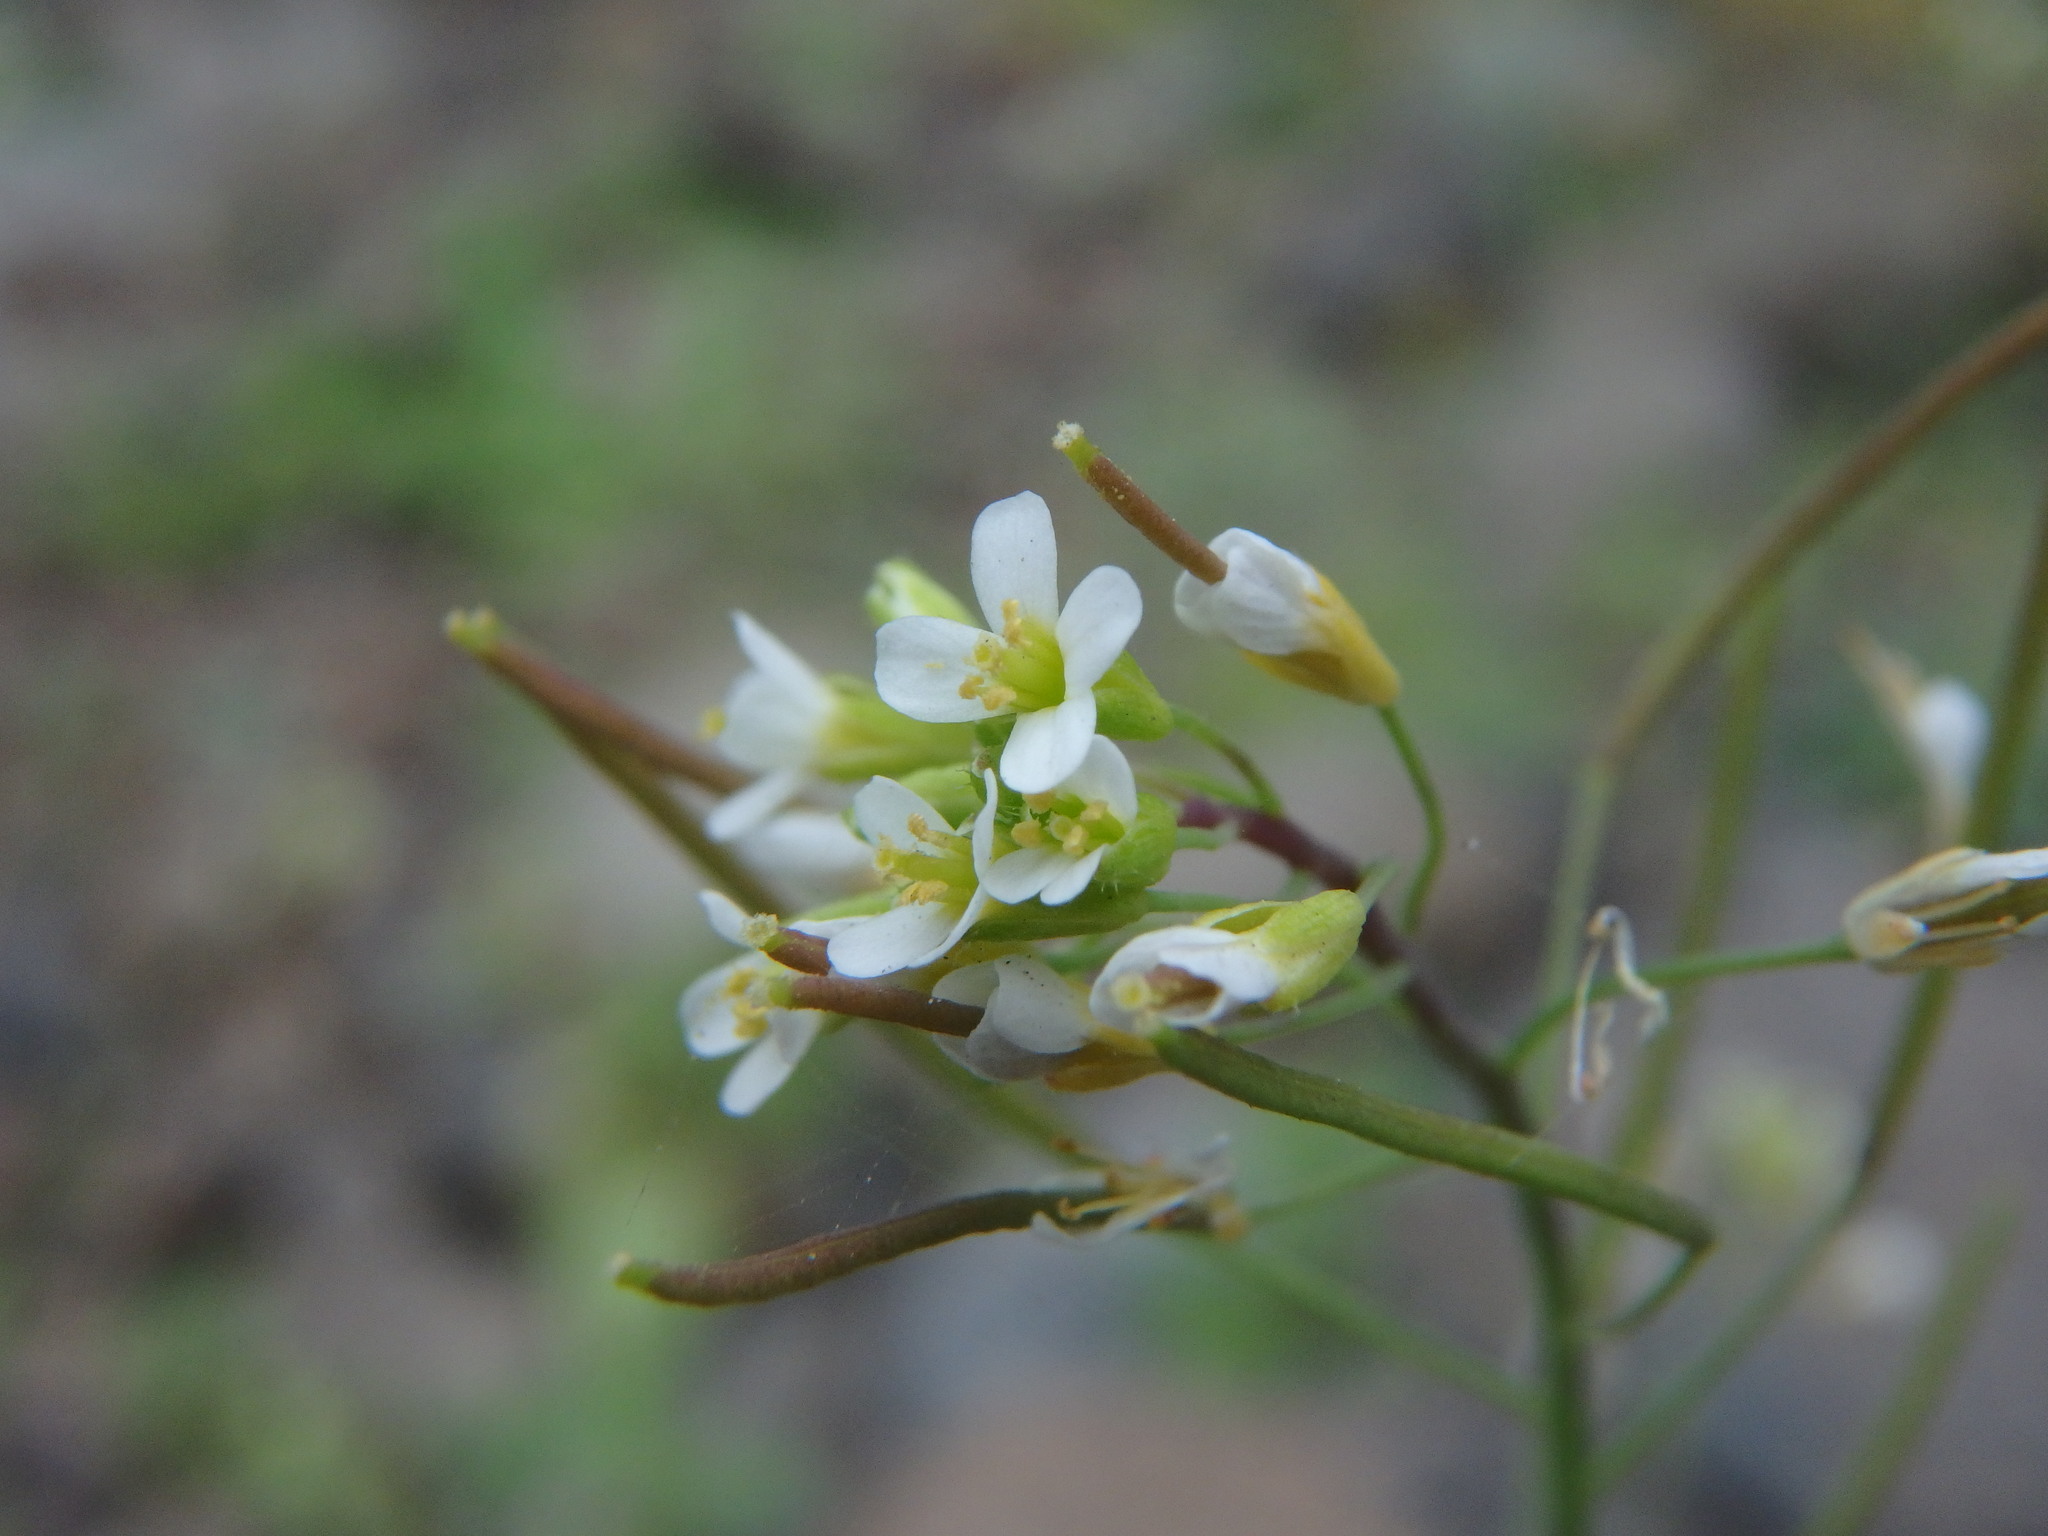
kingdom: Plantae
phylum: Tracheophyta
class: Magnoliopsida
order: Brassicales
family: Brassicaceae
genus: Arabidopsis
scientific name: Arabidopsis thaliana
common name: Thale cress
